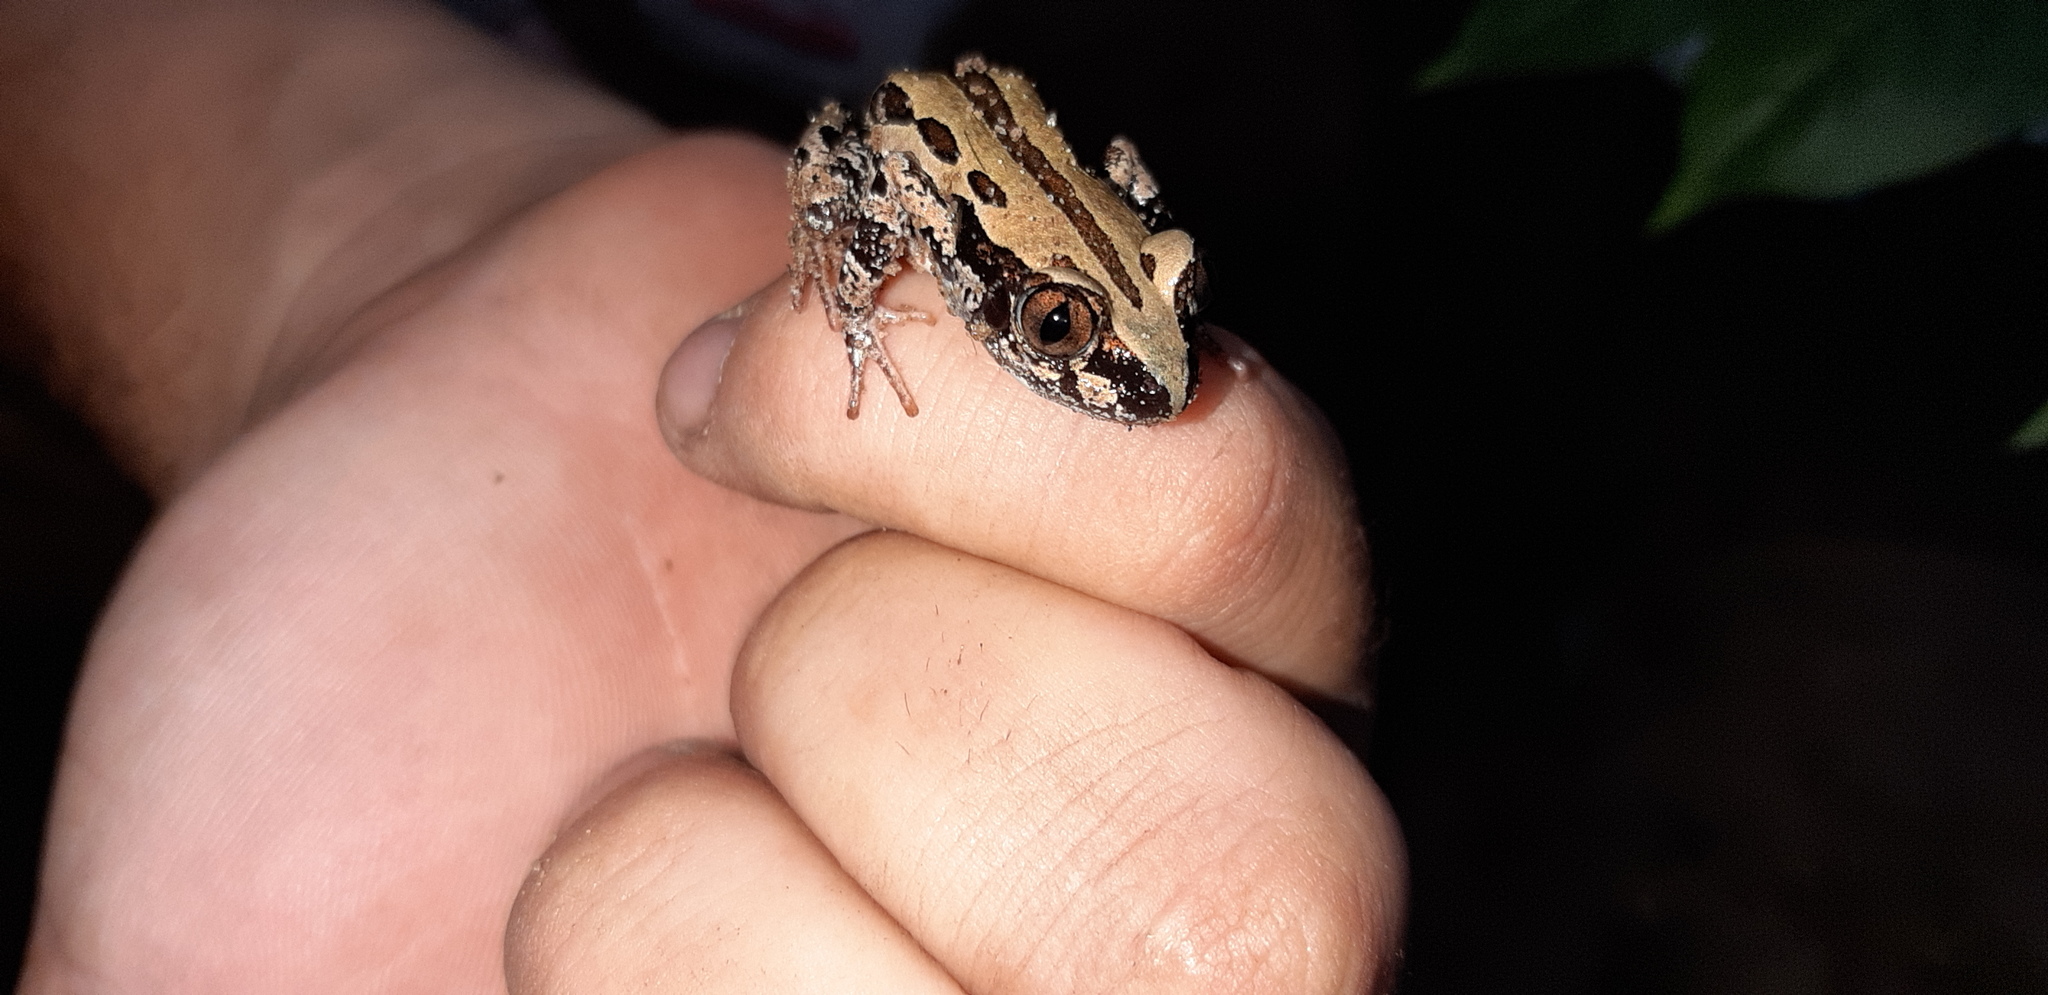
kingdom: Animalia
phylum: Chordata
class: Amphibia
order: Anura
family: Hyperoliidae
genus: Kassina
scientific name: Kassina senegalensis
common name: Senegal land frog
